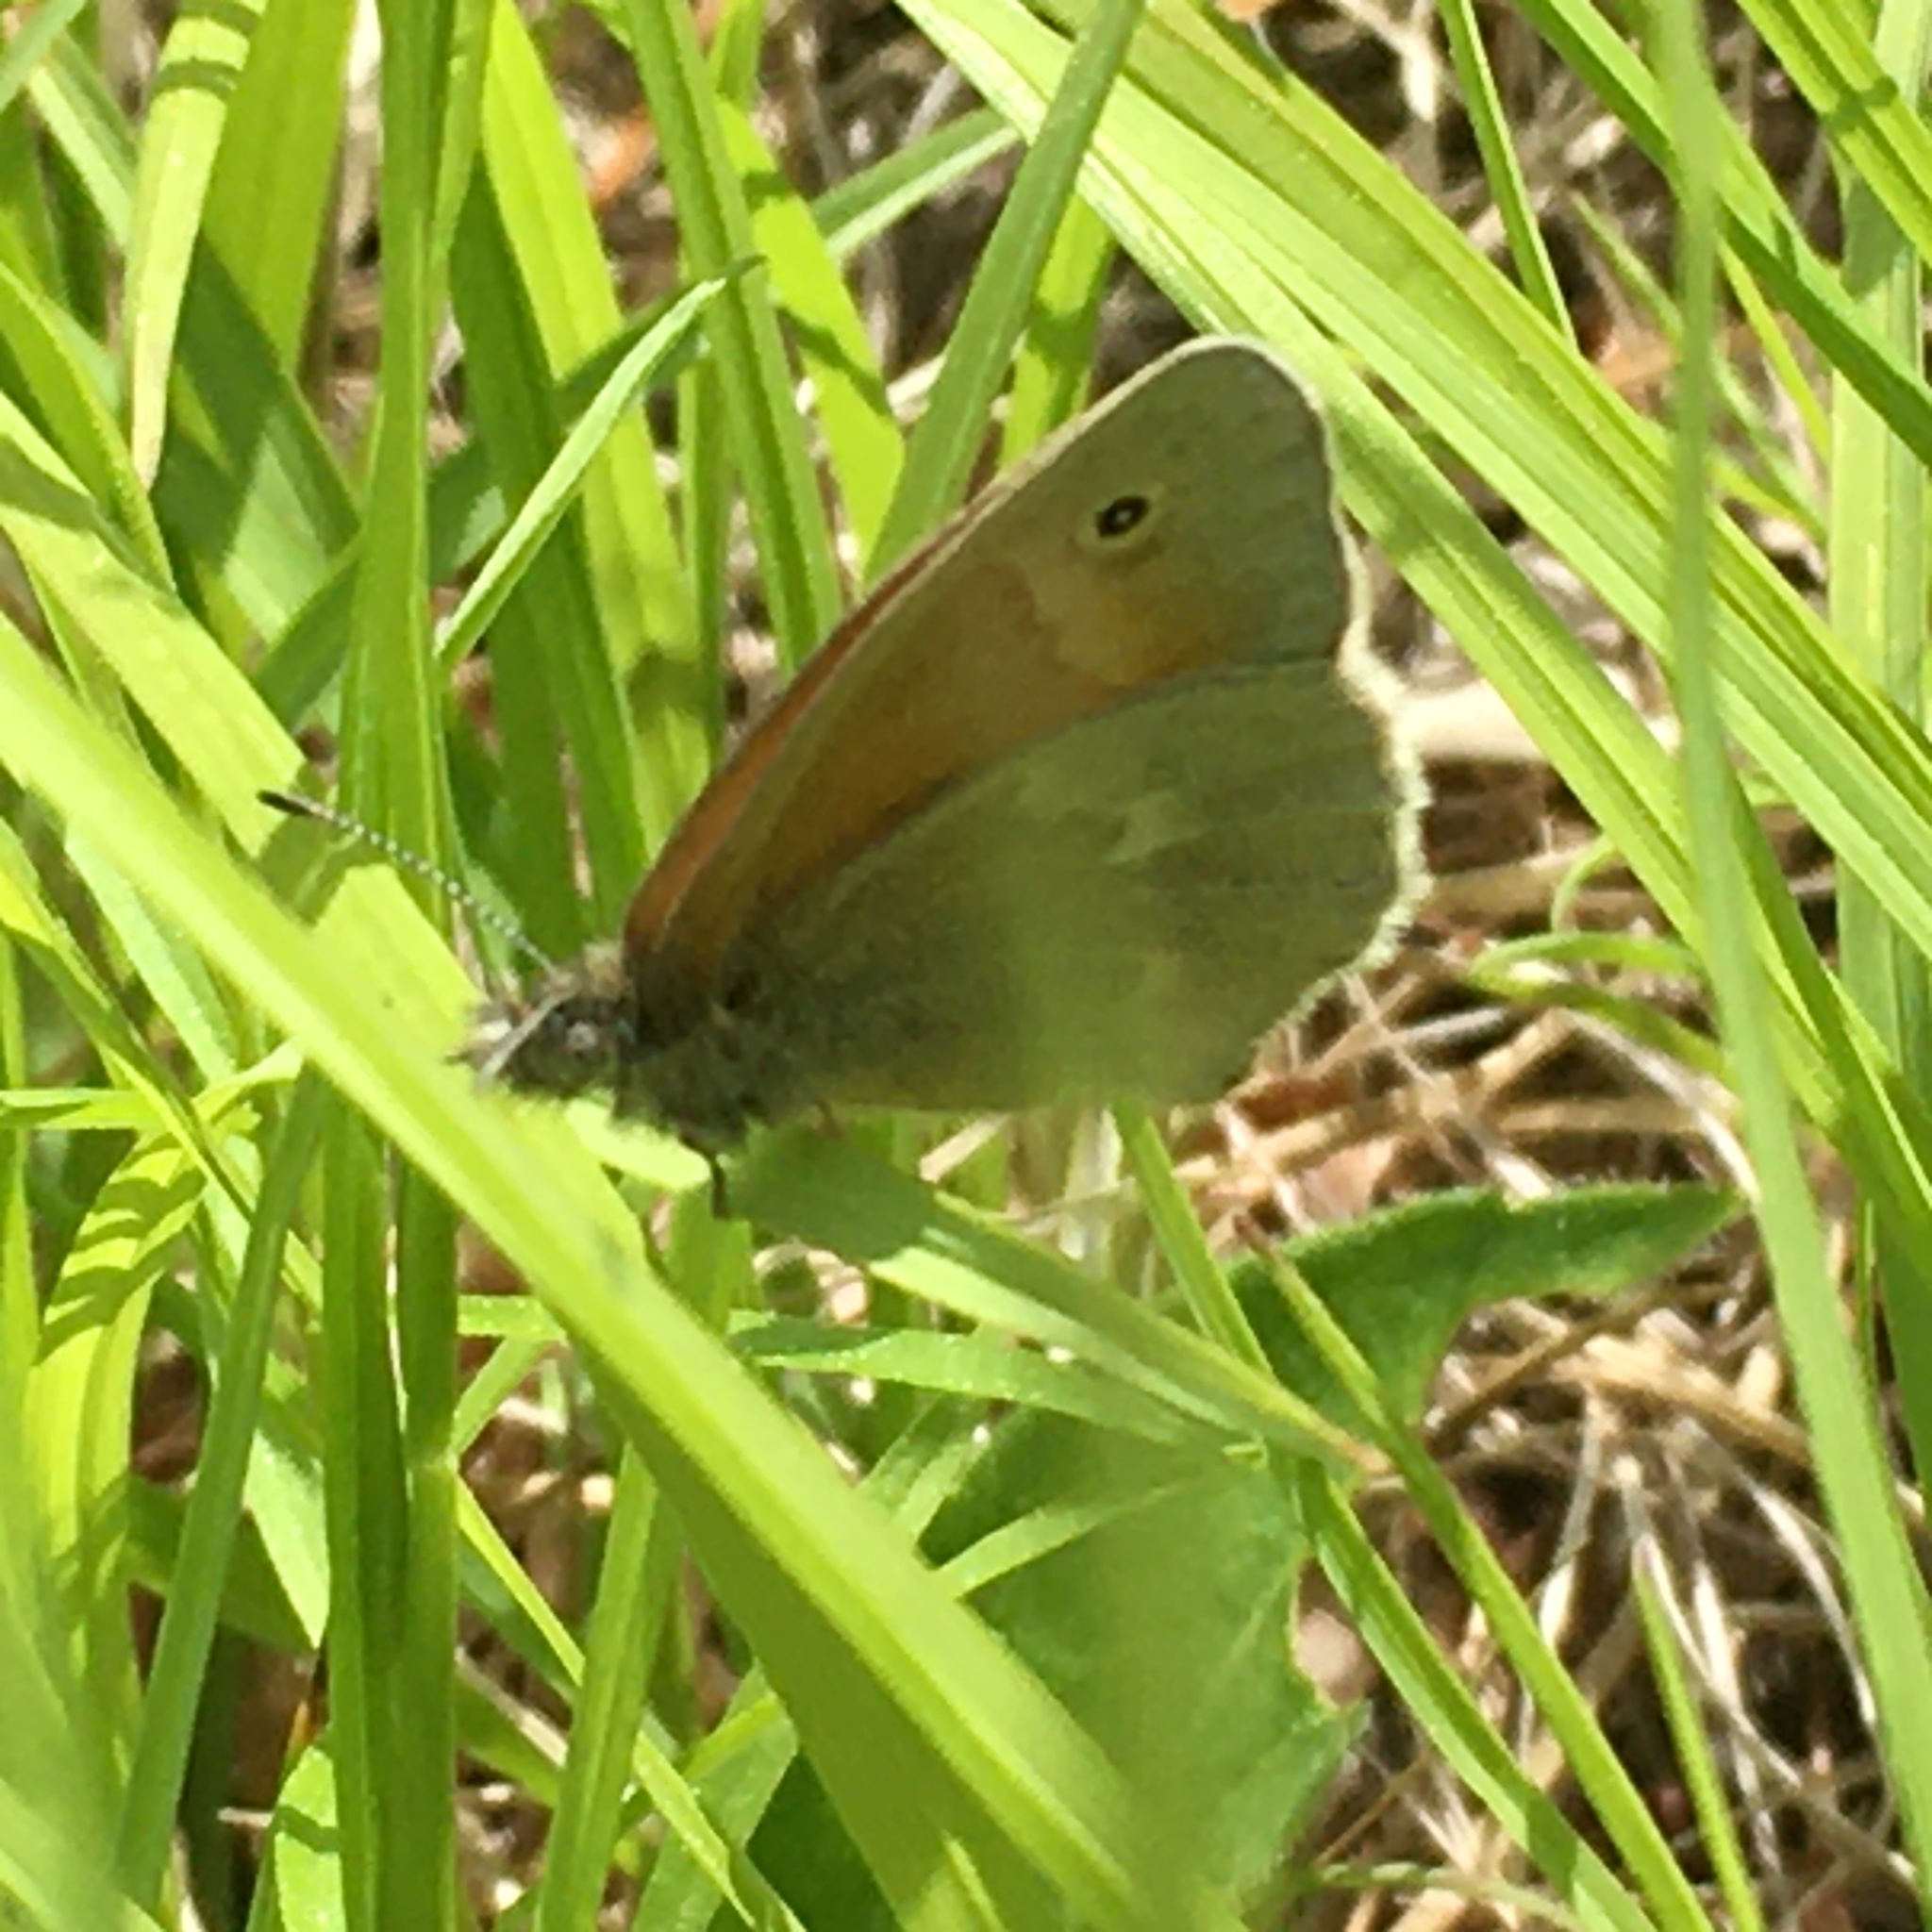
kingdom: Animalia
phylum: Arthropoda
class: Insecta
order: Lepidoptera
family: Nymphalidae
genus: Coenonympha
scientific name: Coenonympha california
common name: Common ringlet
